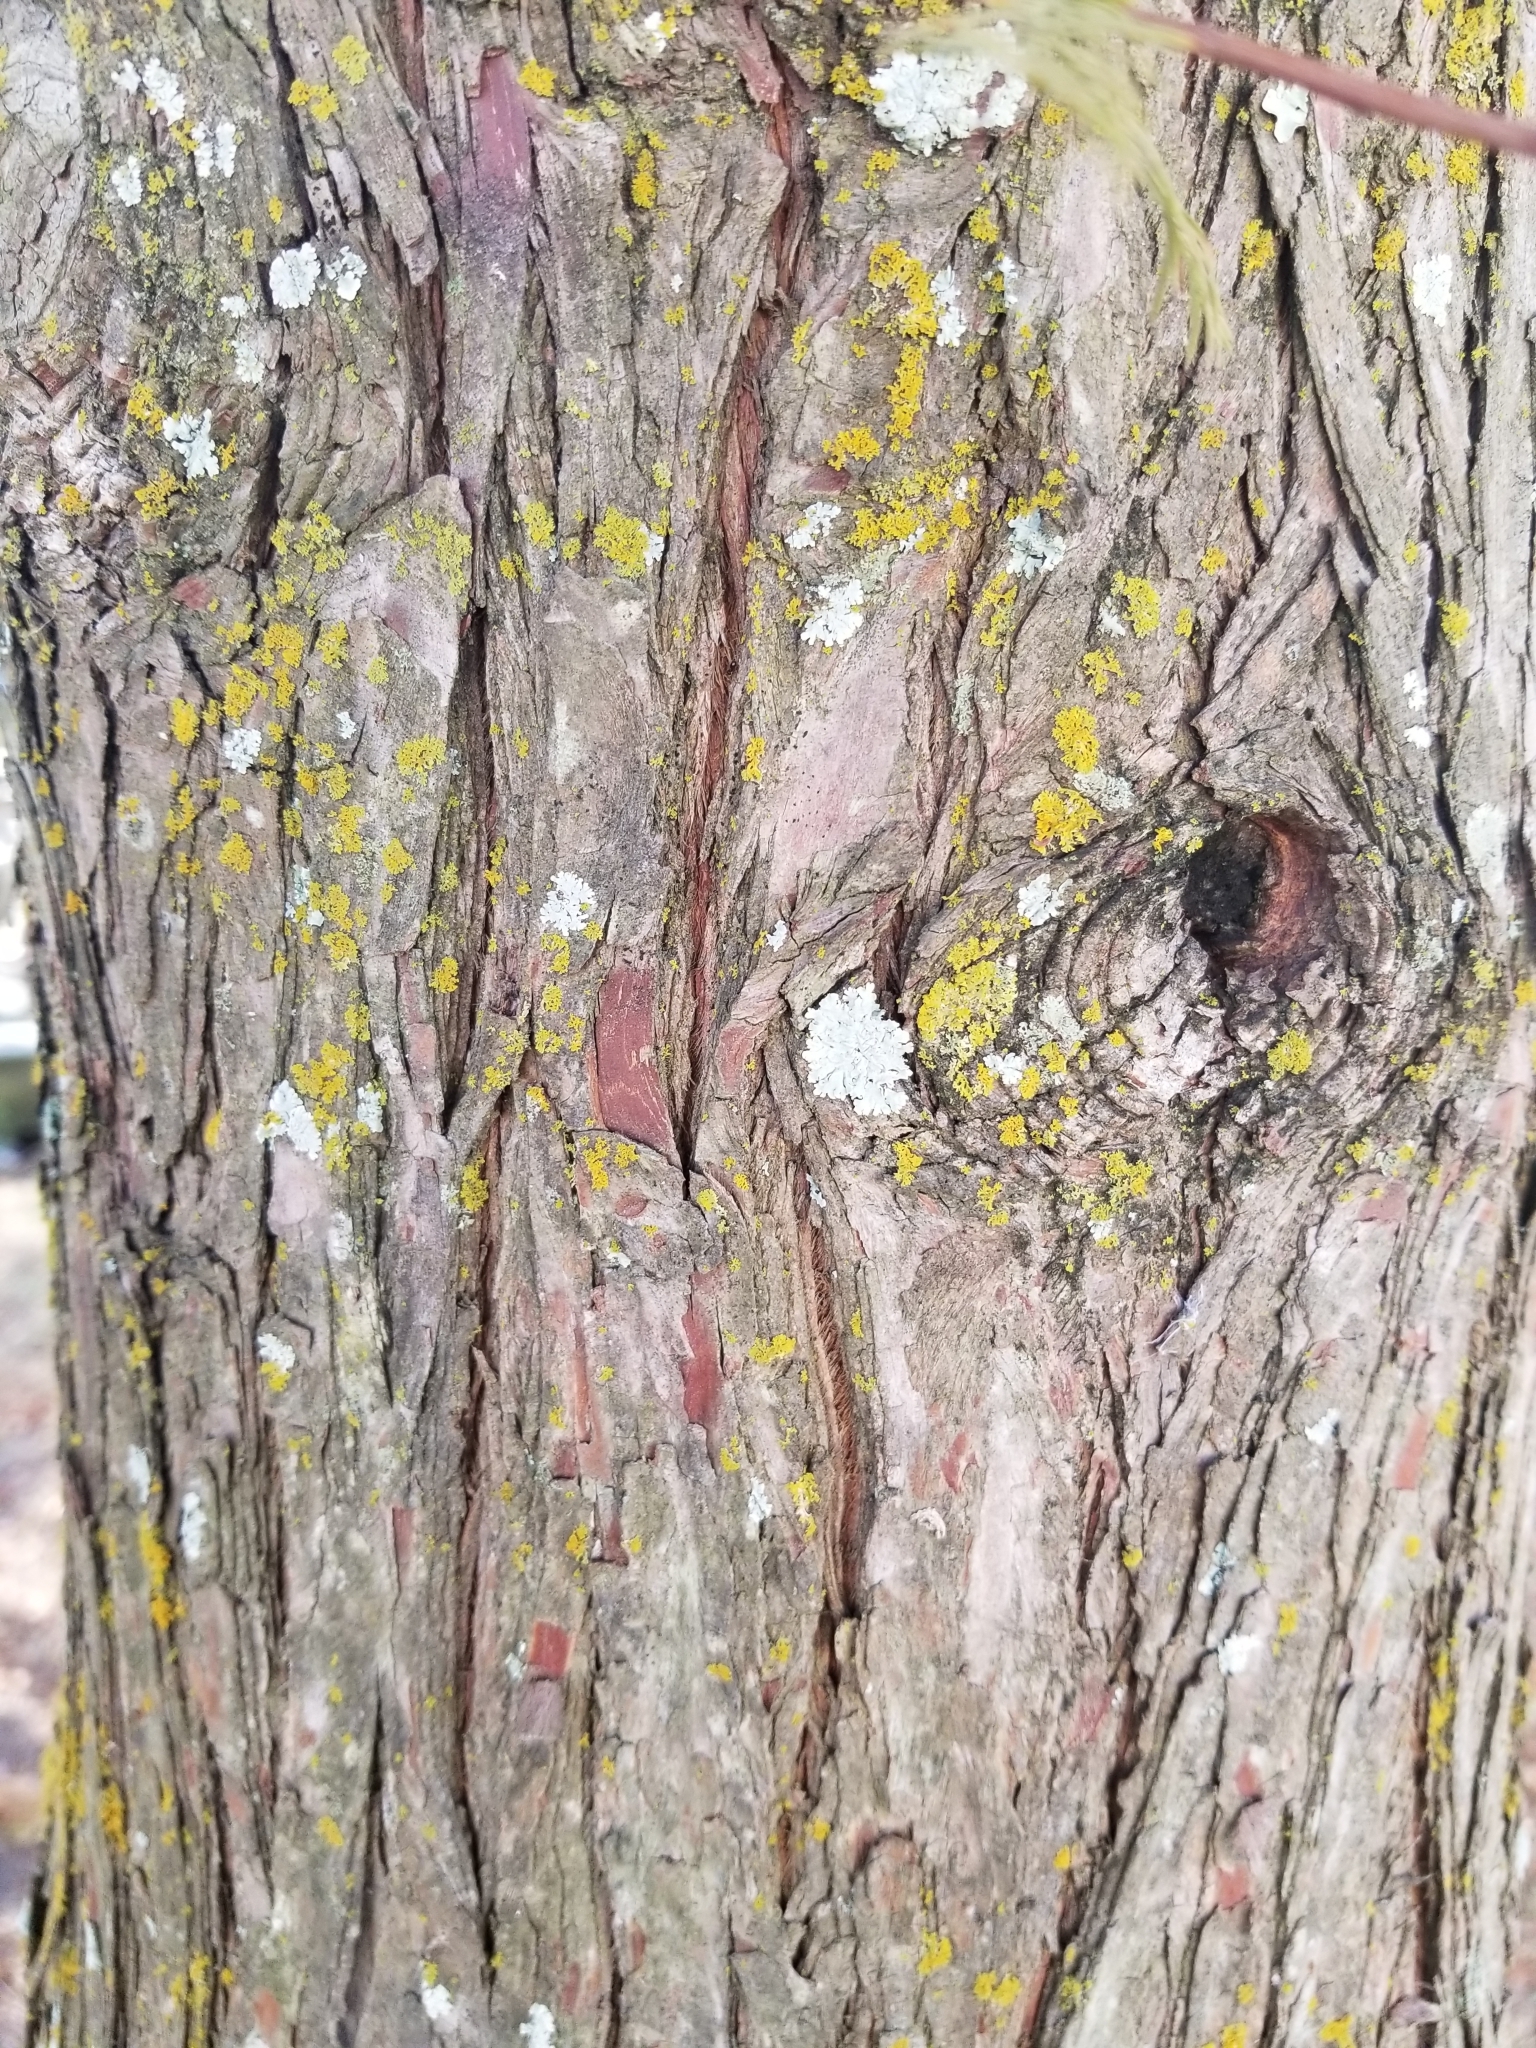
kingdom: Plantae
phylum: Tracheophyta
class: Pinopsida
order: Pinales
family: Cupressaceae
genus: Taxodium
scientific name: Taxodium distichum
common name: Bald cypress
